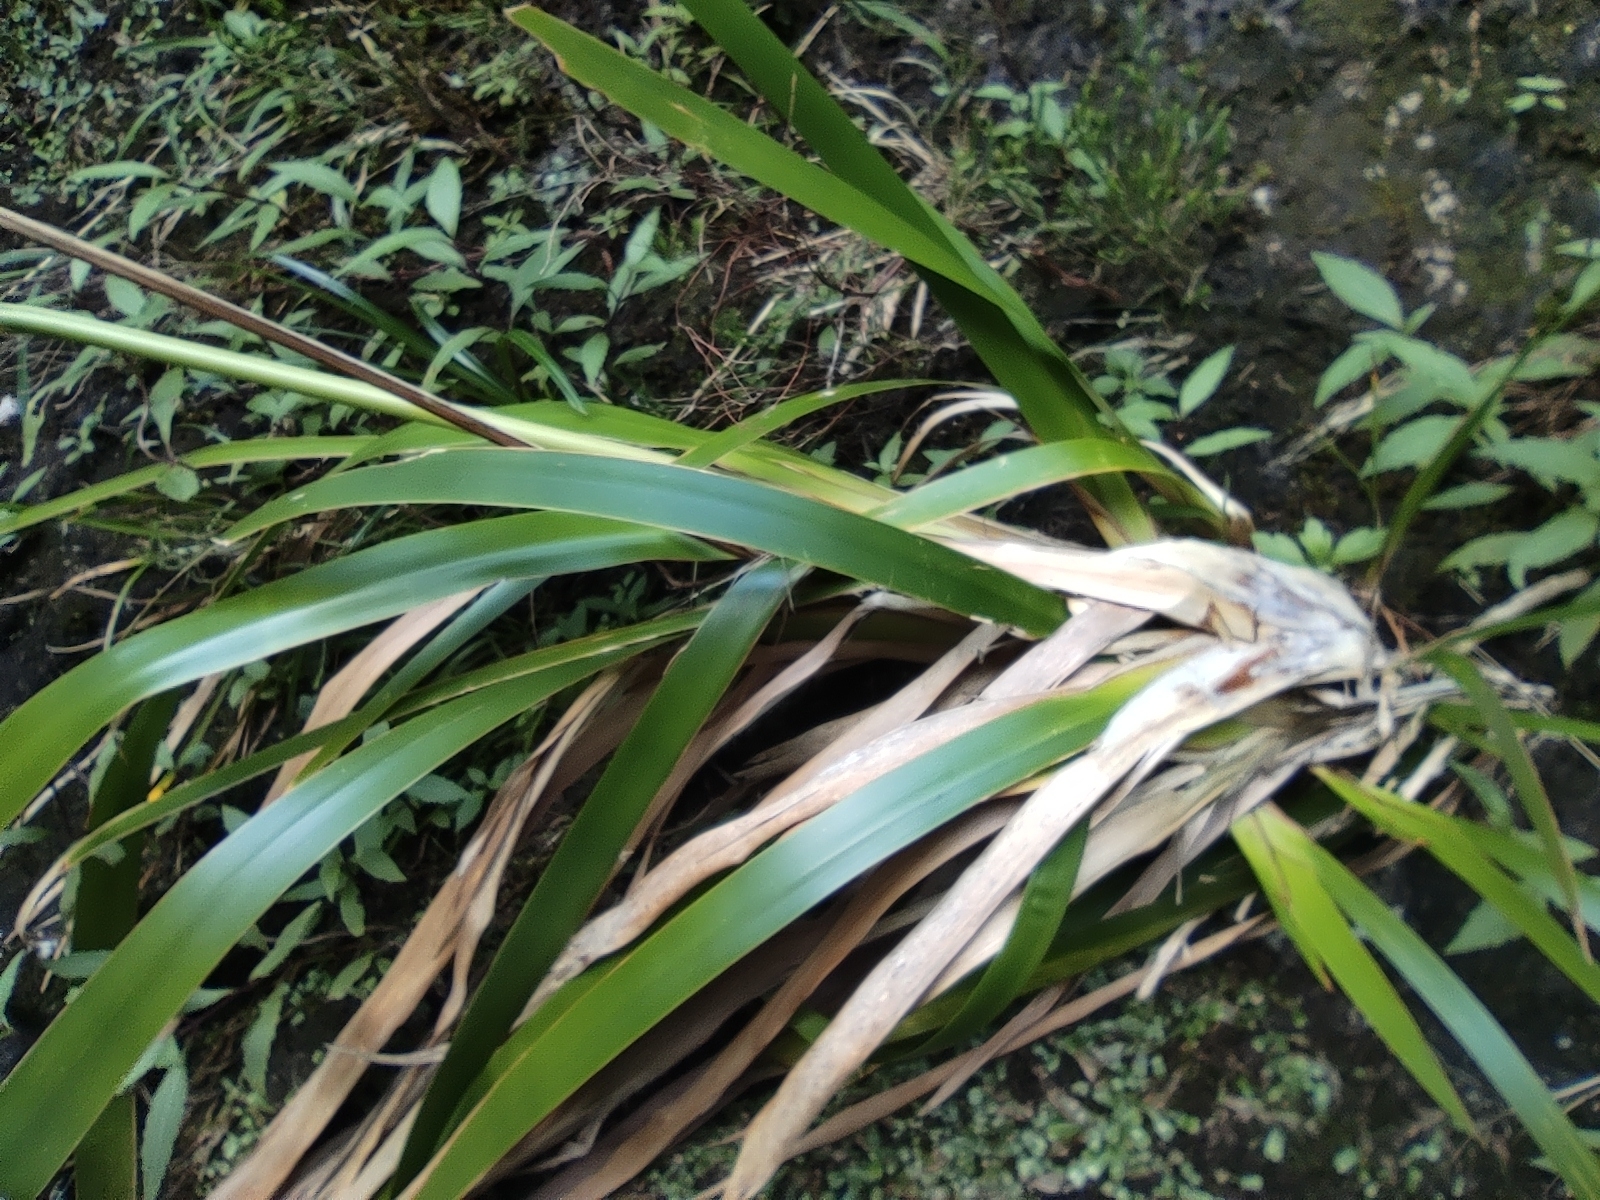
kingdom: Plantae
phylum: Tracheophyta
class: Liliopsida
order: Poales
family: Cyperaceae
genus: Machaerina
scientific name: Machaerina iridifolia
